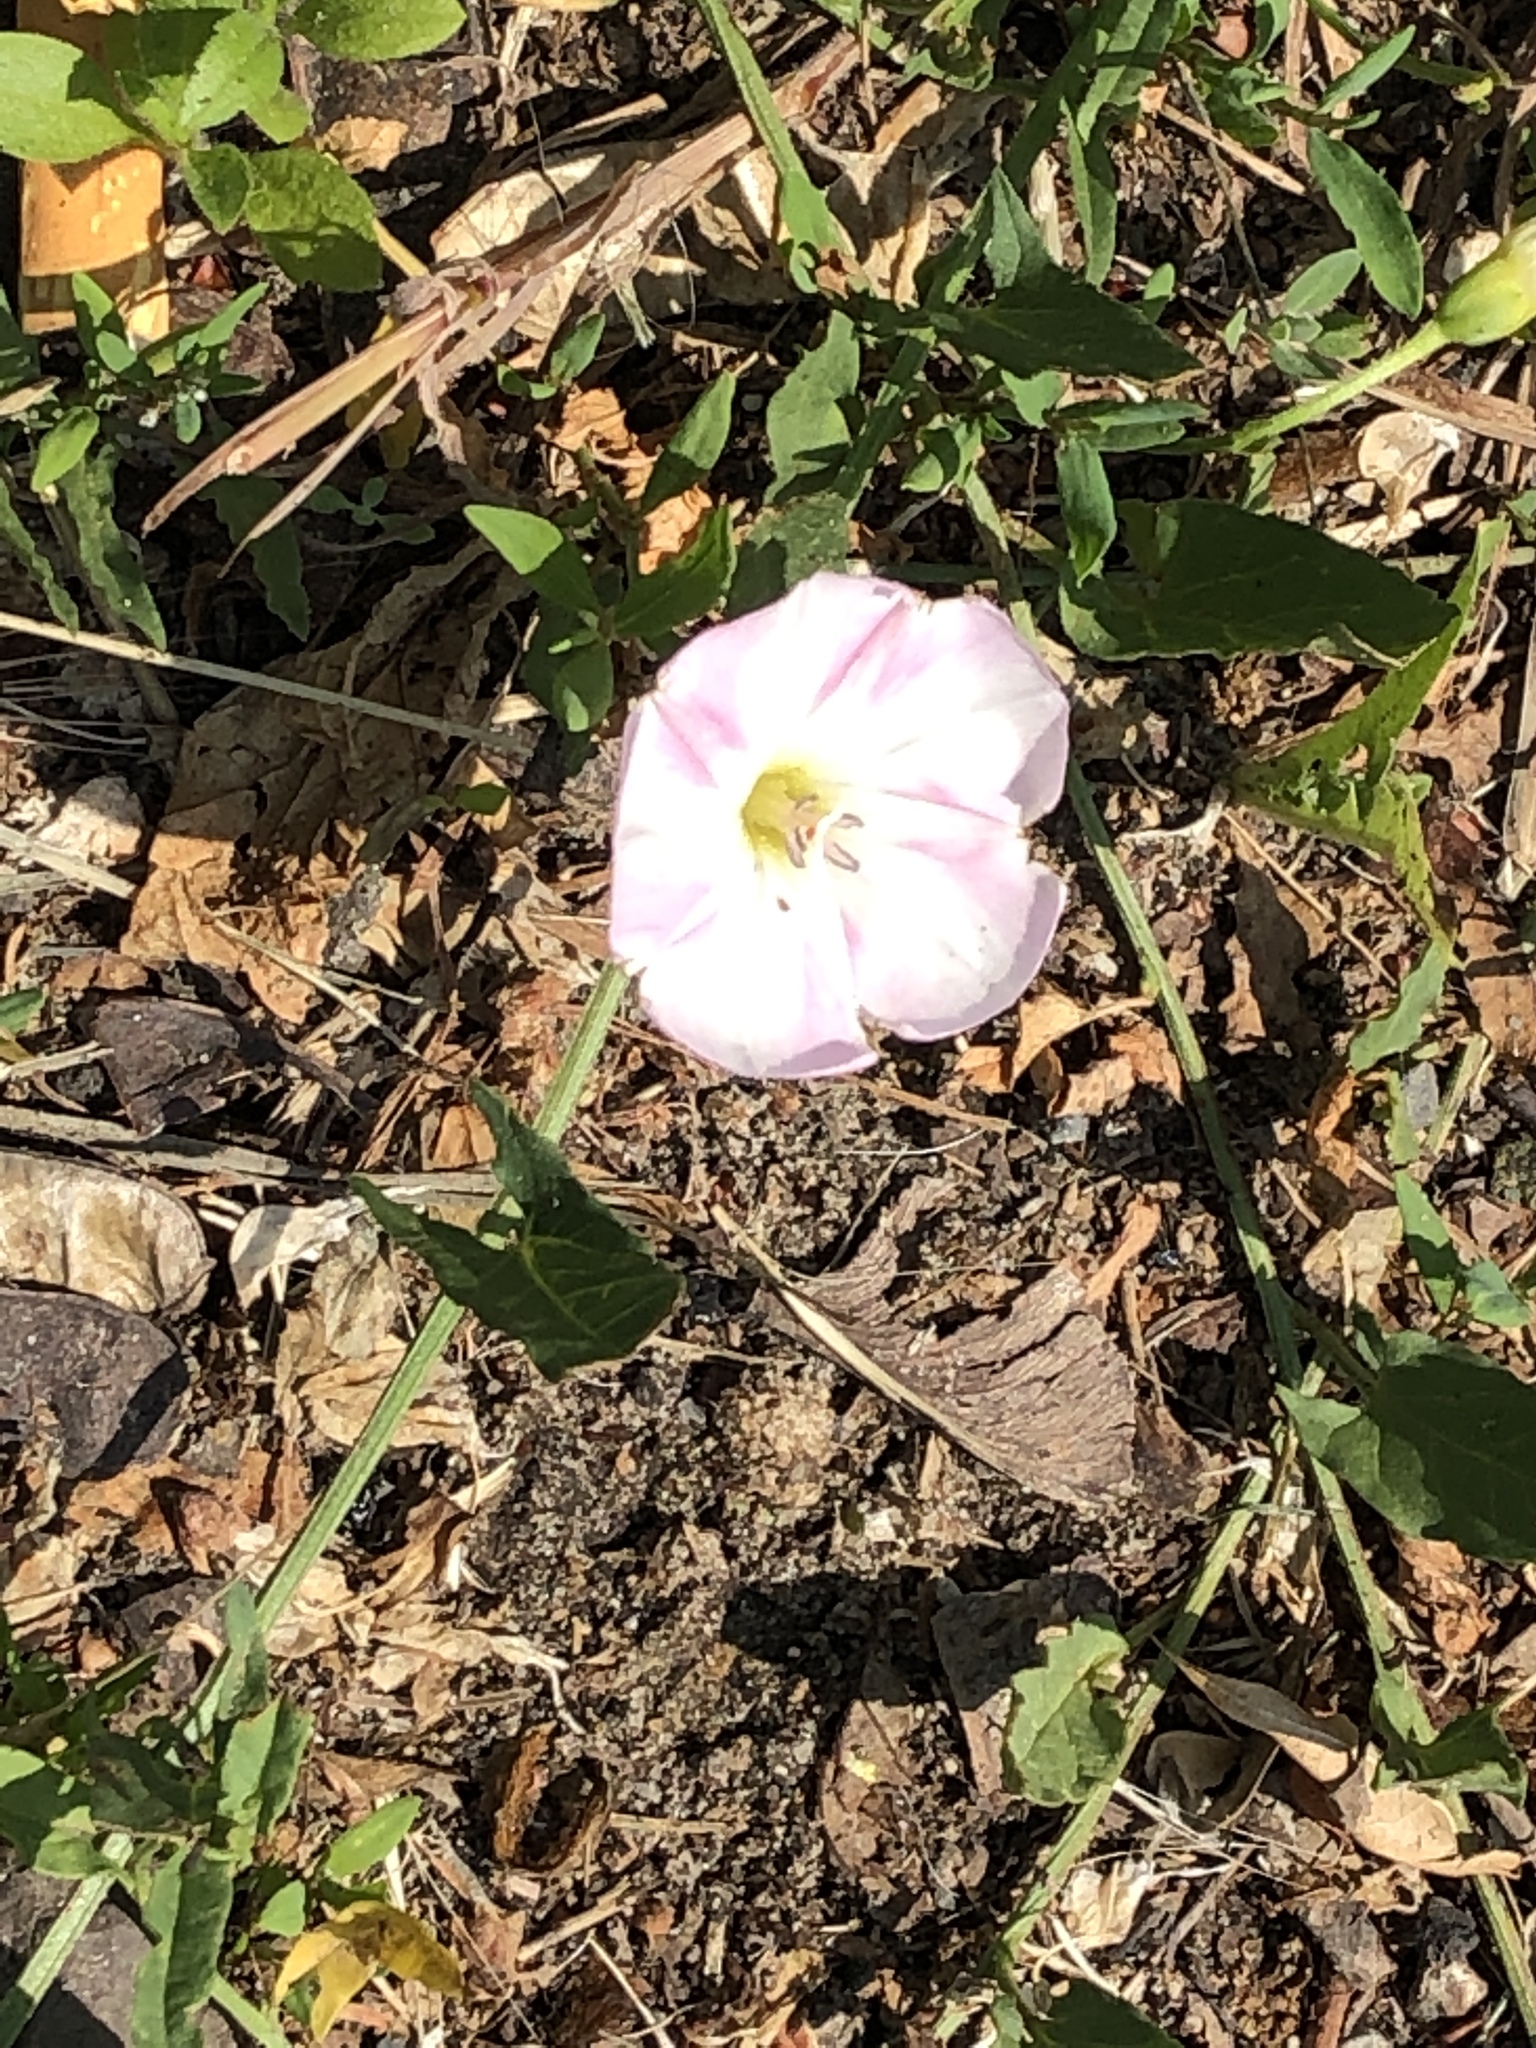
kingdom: Plantae
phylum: Tracheophyta
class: Magnoliopsida
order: Solanales
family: Convolvulaceae
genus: Convolvulus
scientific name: Convolvulus arvensis
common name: Field bindweed
